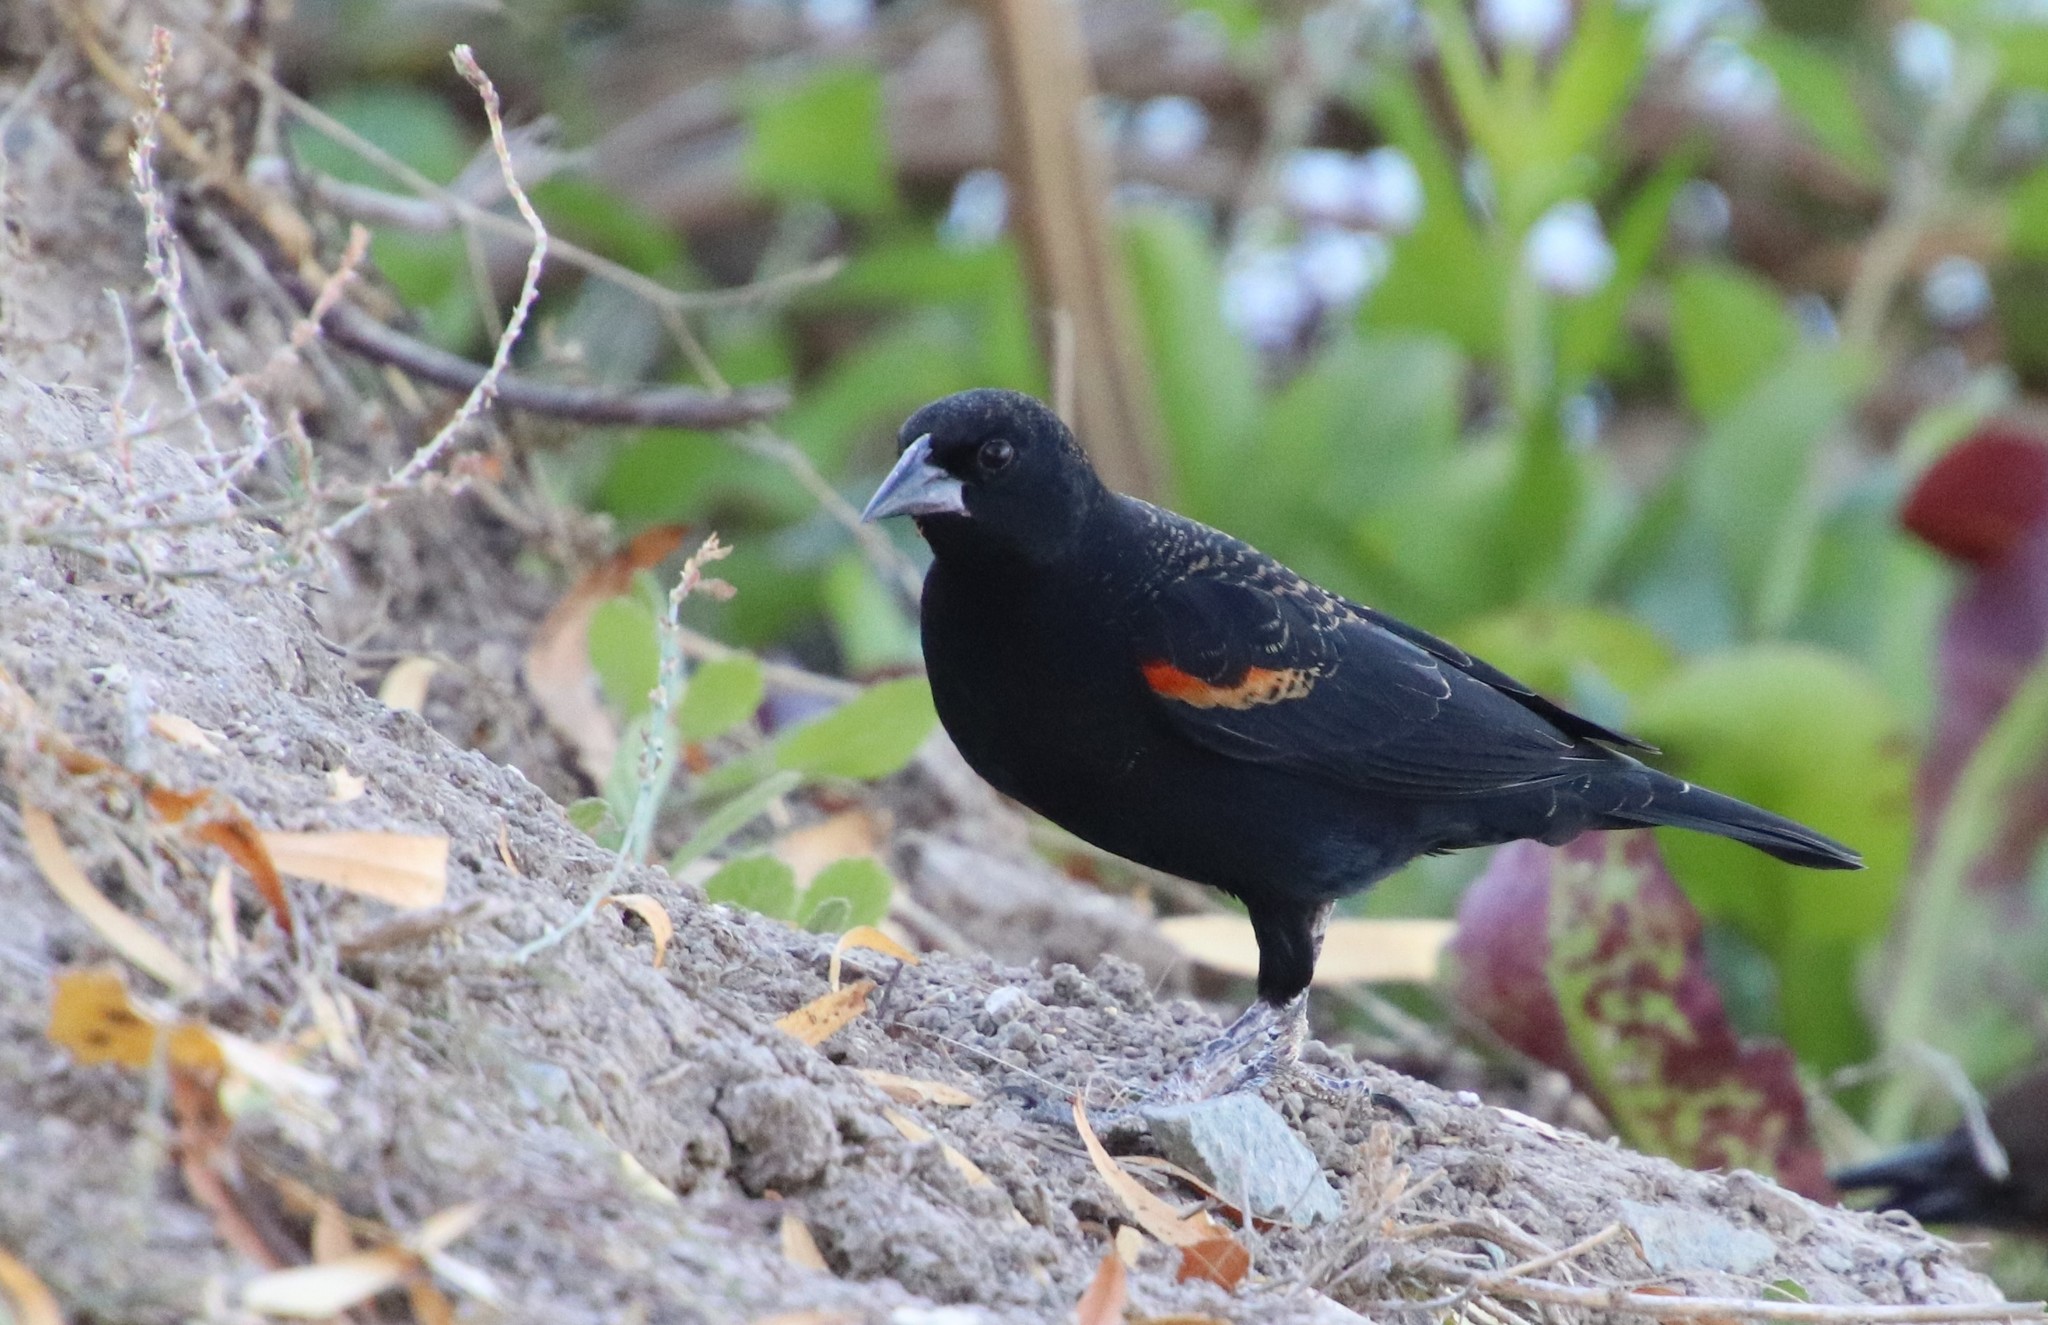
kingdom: Animalia
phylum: Chordata
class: Aves
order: Passeriformes
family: Icteridae
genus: Agelaius
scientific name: Agelaius phoeniceus
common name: Red-winged blackbird
